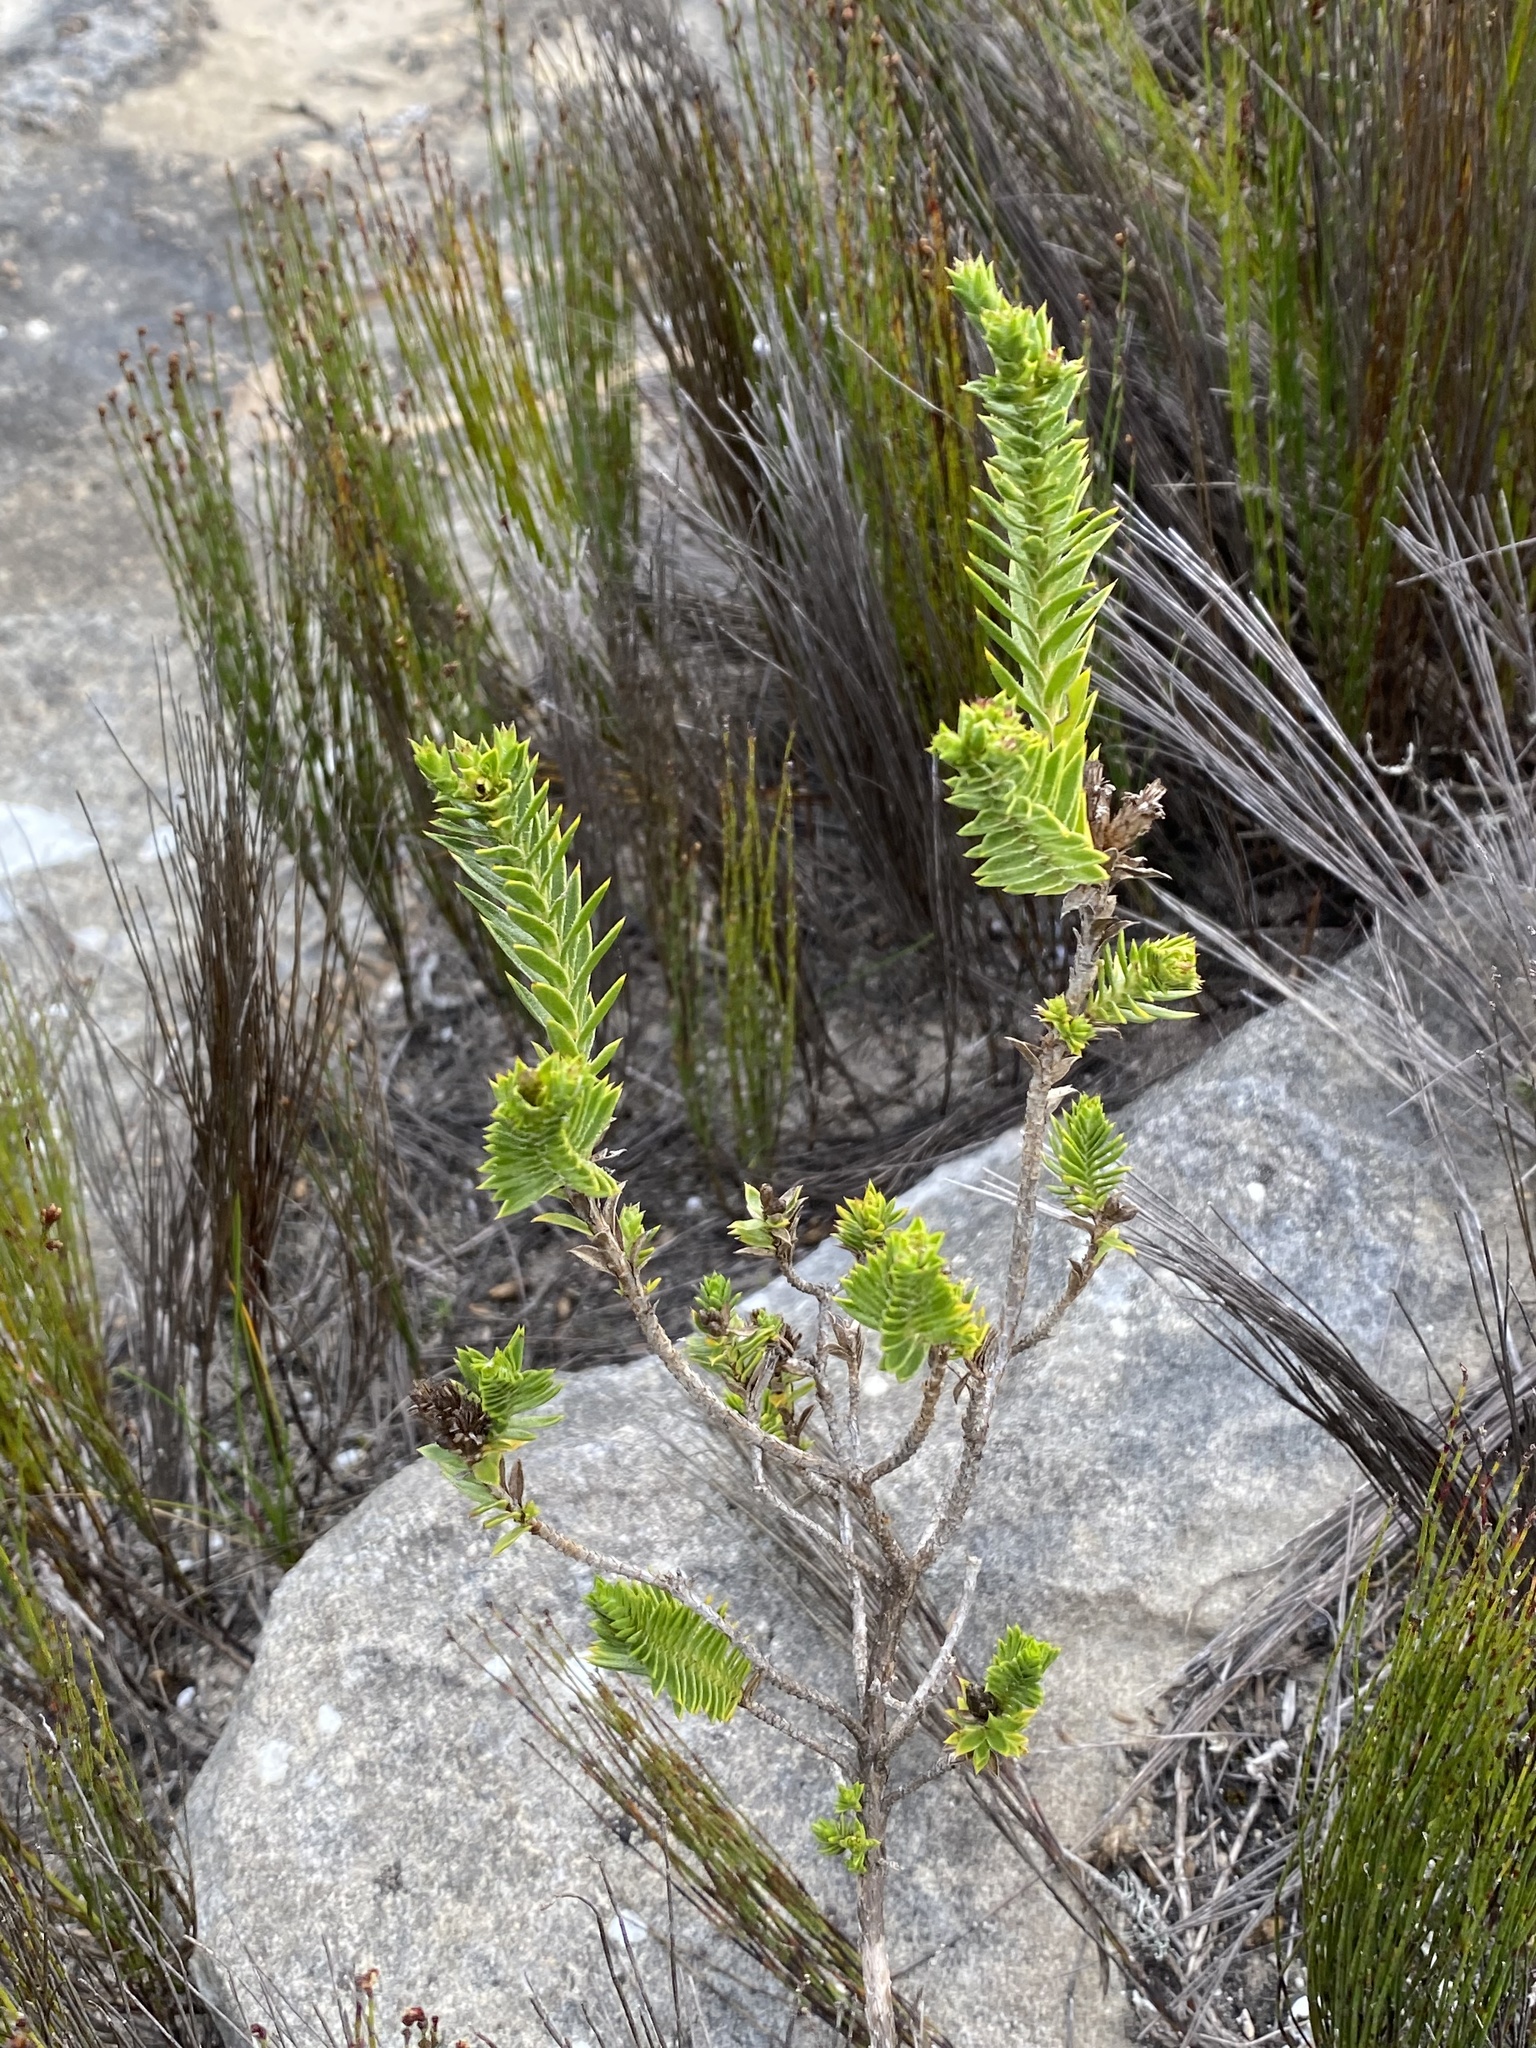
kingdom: Plantae
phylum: Tracheophyta
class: Magnoliopsida
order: Asterales
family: Asteraceae
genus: Oedera
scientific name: Oedera steyniae
